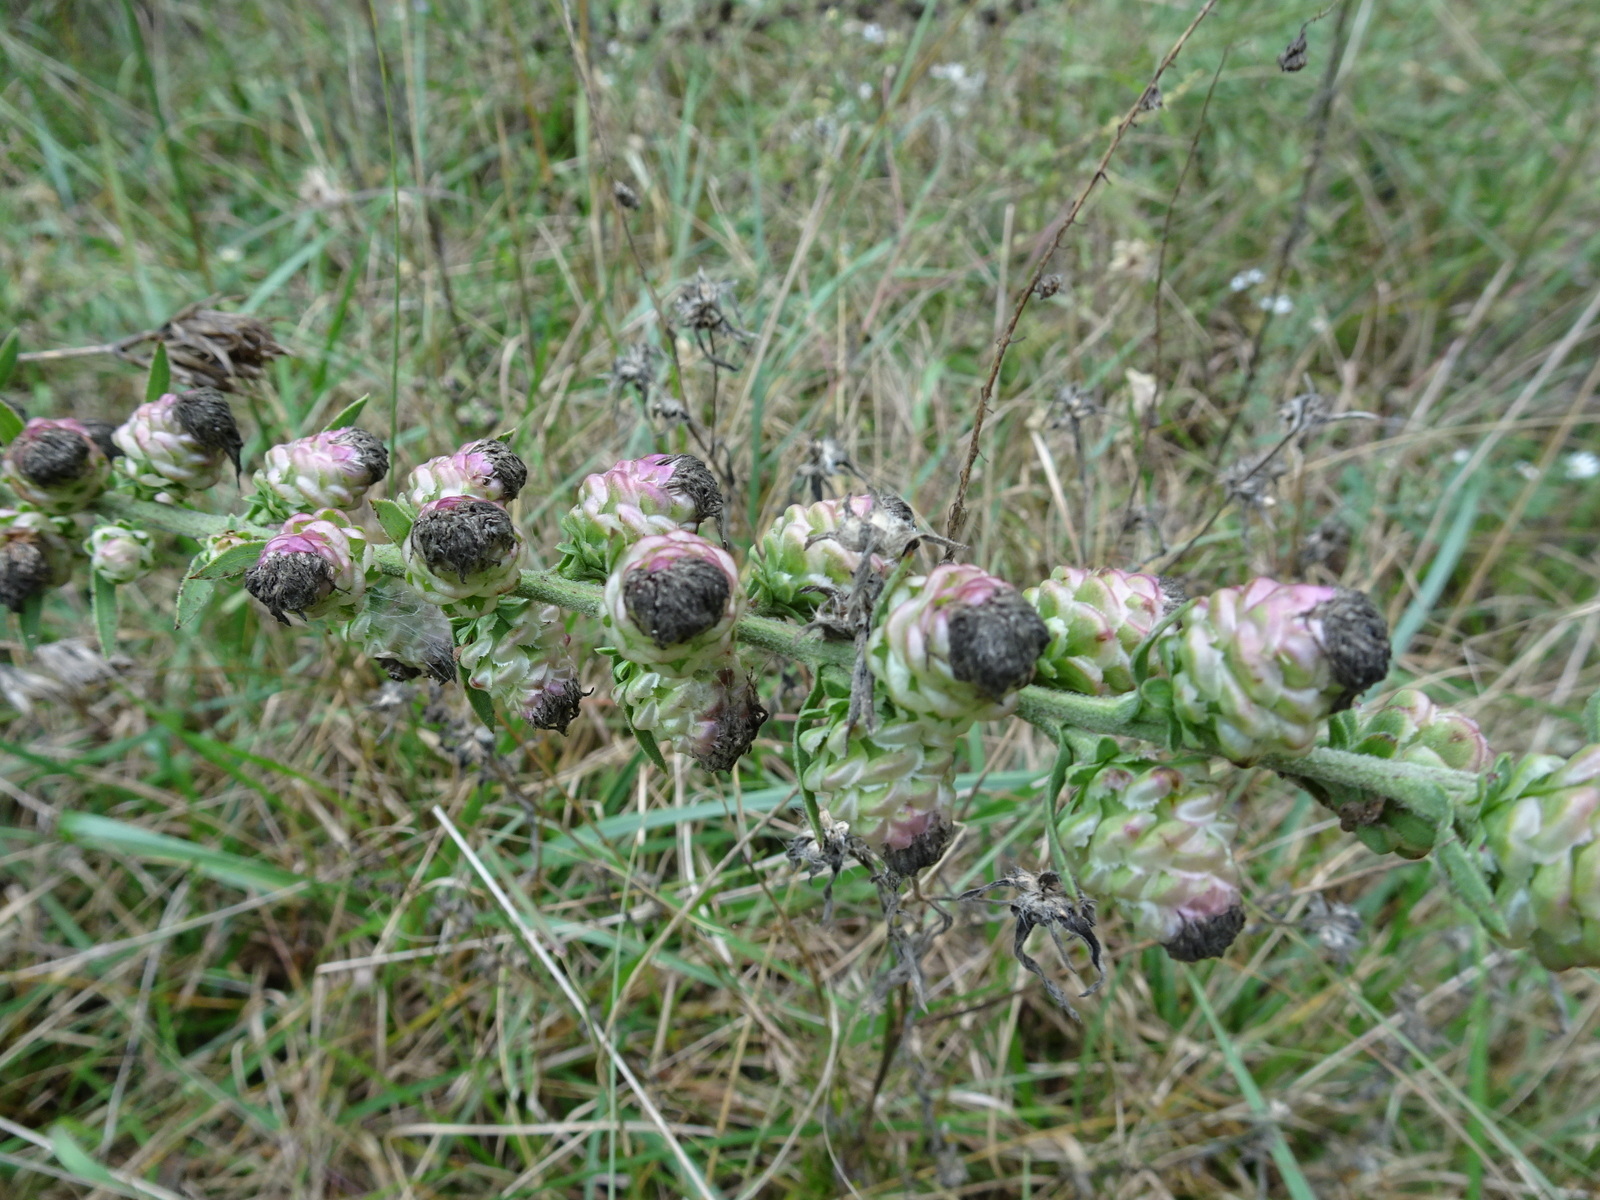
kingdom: Plantae
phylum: Tracheophyta
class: Magnoliopsida
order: Asterales
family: Asteraceae
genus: Liatris
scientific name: Liatris aspera
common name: Lacerate blazing-star
